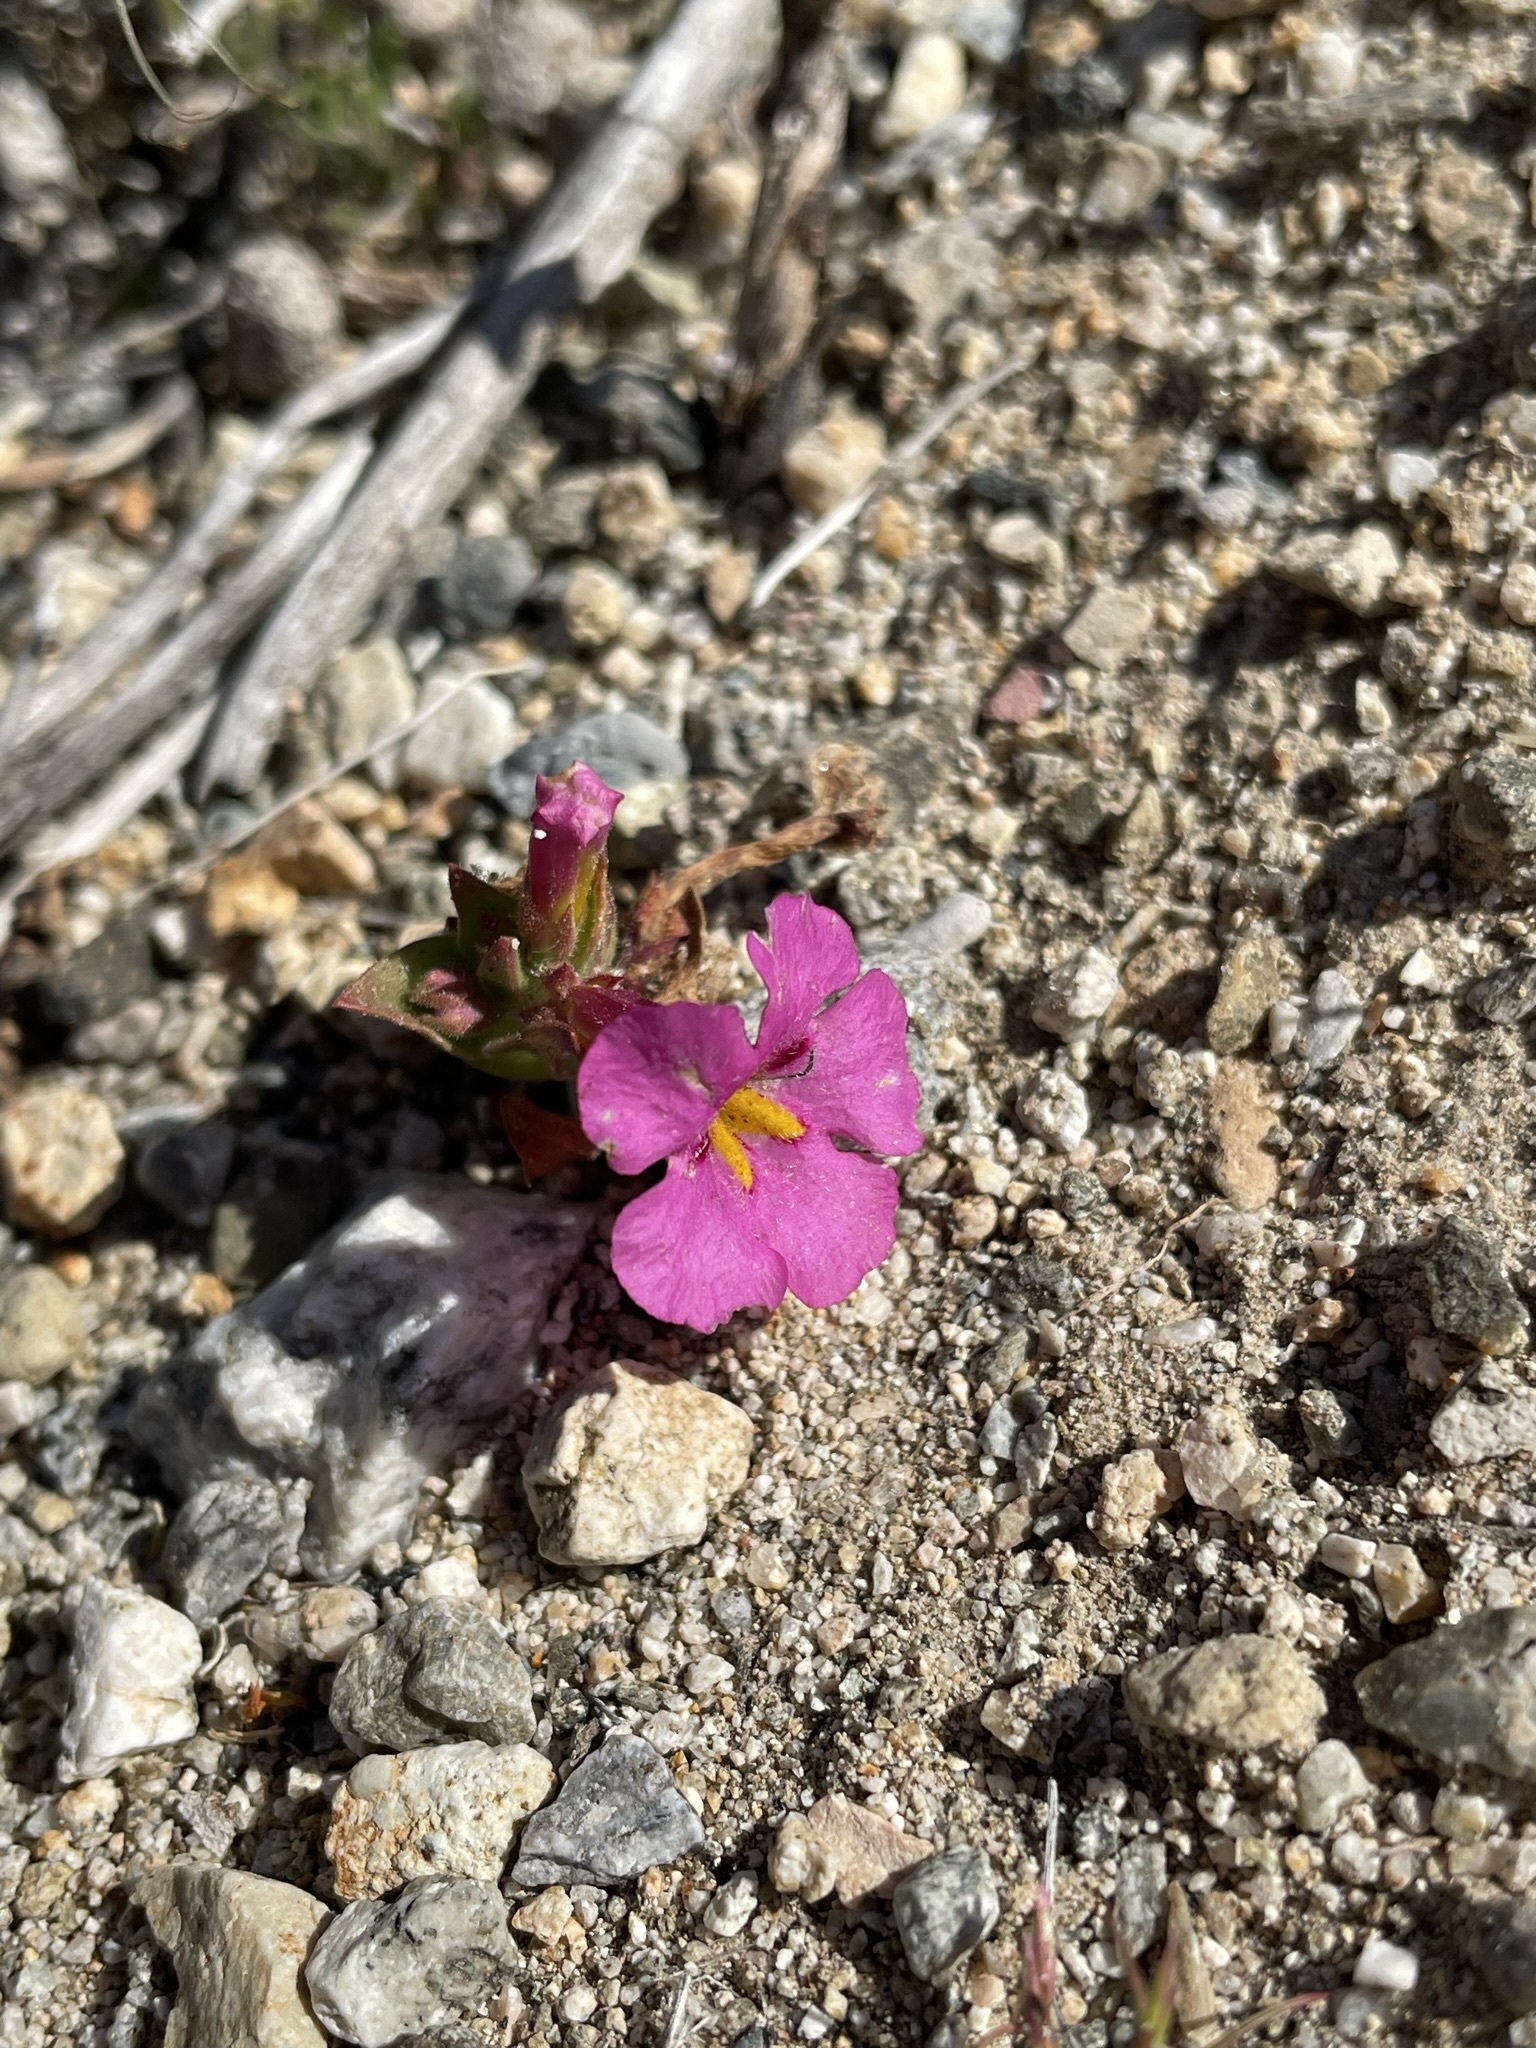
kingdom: Plantae
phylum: Tracheophyta
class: Magnoliopsida
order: Lamiales
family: Phrymaceae
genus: Diplacus
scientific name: Diplacus bigelovii
